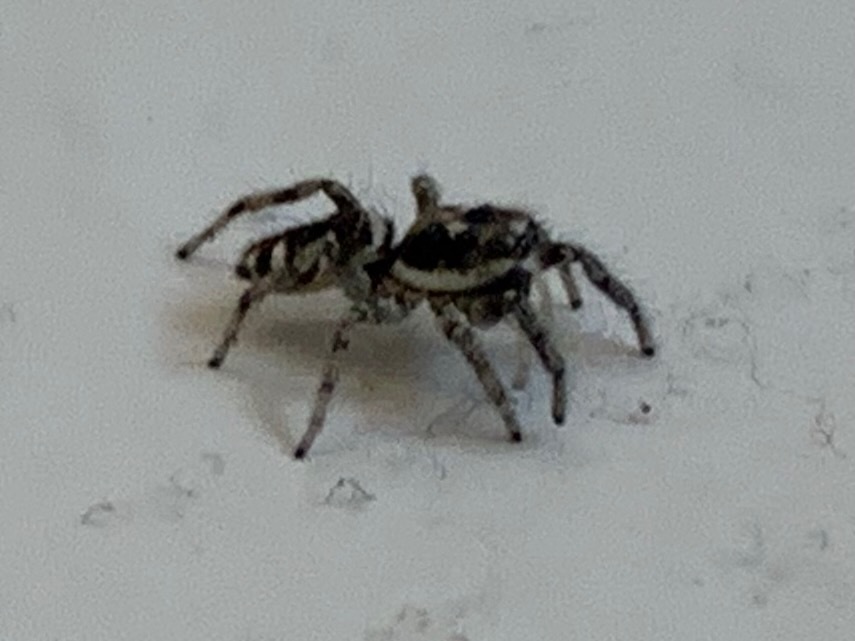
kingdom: Animalia
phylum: Arthropoda
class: Arachnida
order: Araneae
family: Salticidae
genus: Salticus
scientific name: Salticus scenicus
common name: Zebra jumper
